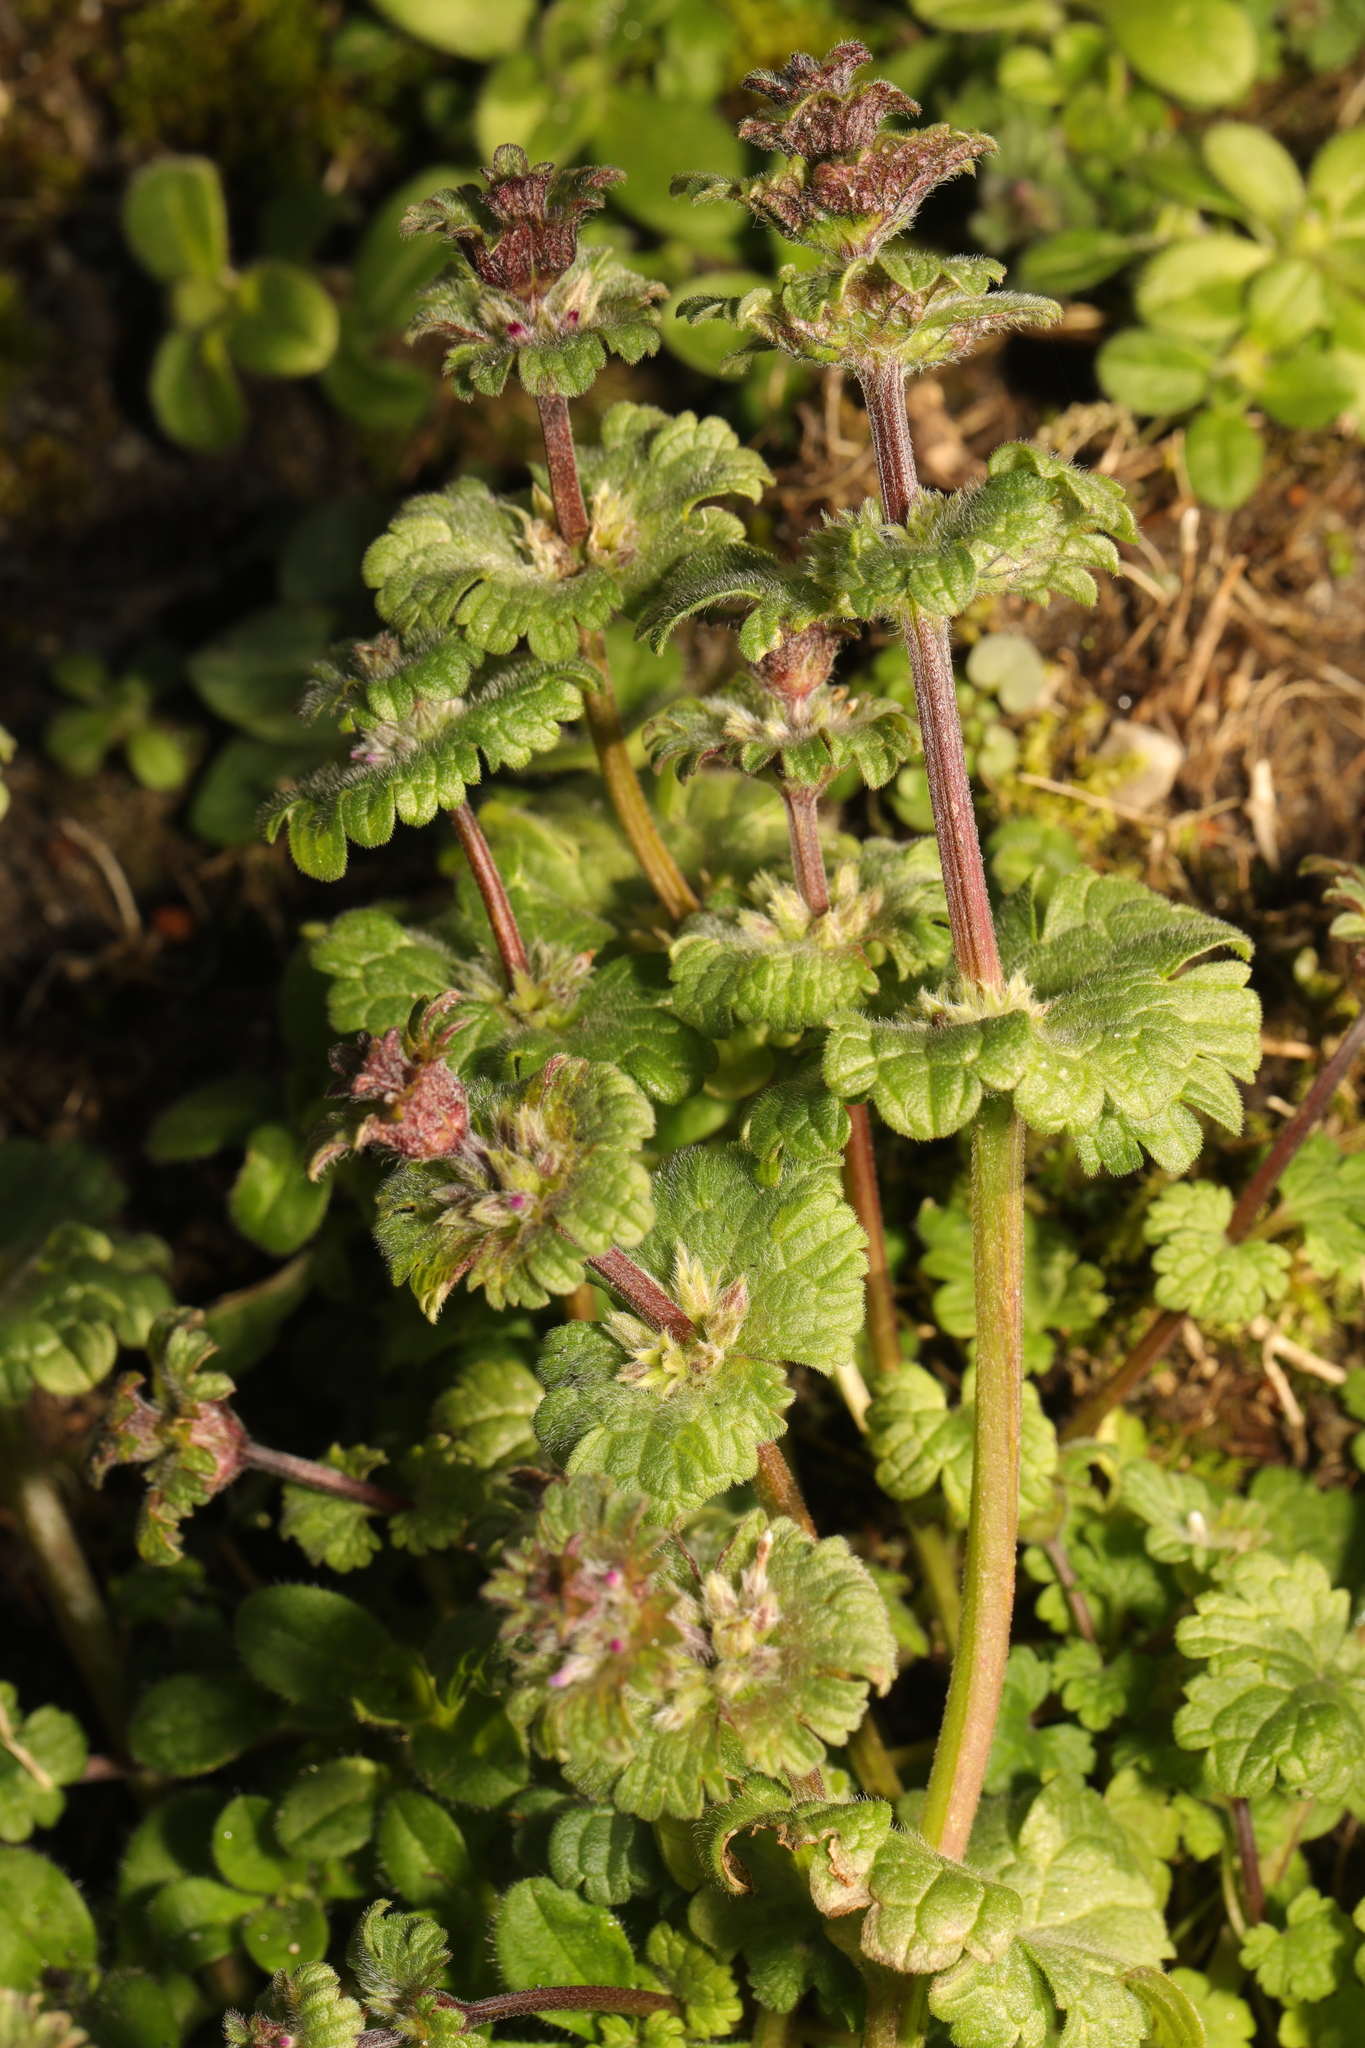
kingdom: Plantae
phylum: Tracheophyta
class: Magnoliopsida
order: Lamiales
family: Lamiaceae
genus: Lamium
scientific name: Lamium amplexicaule
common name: Henbit dead-nettle
